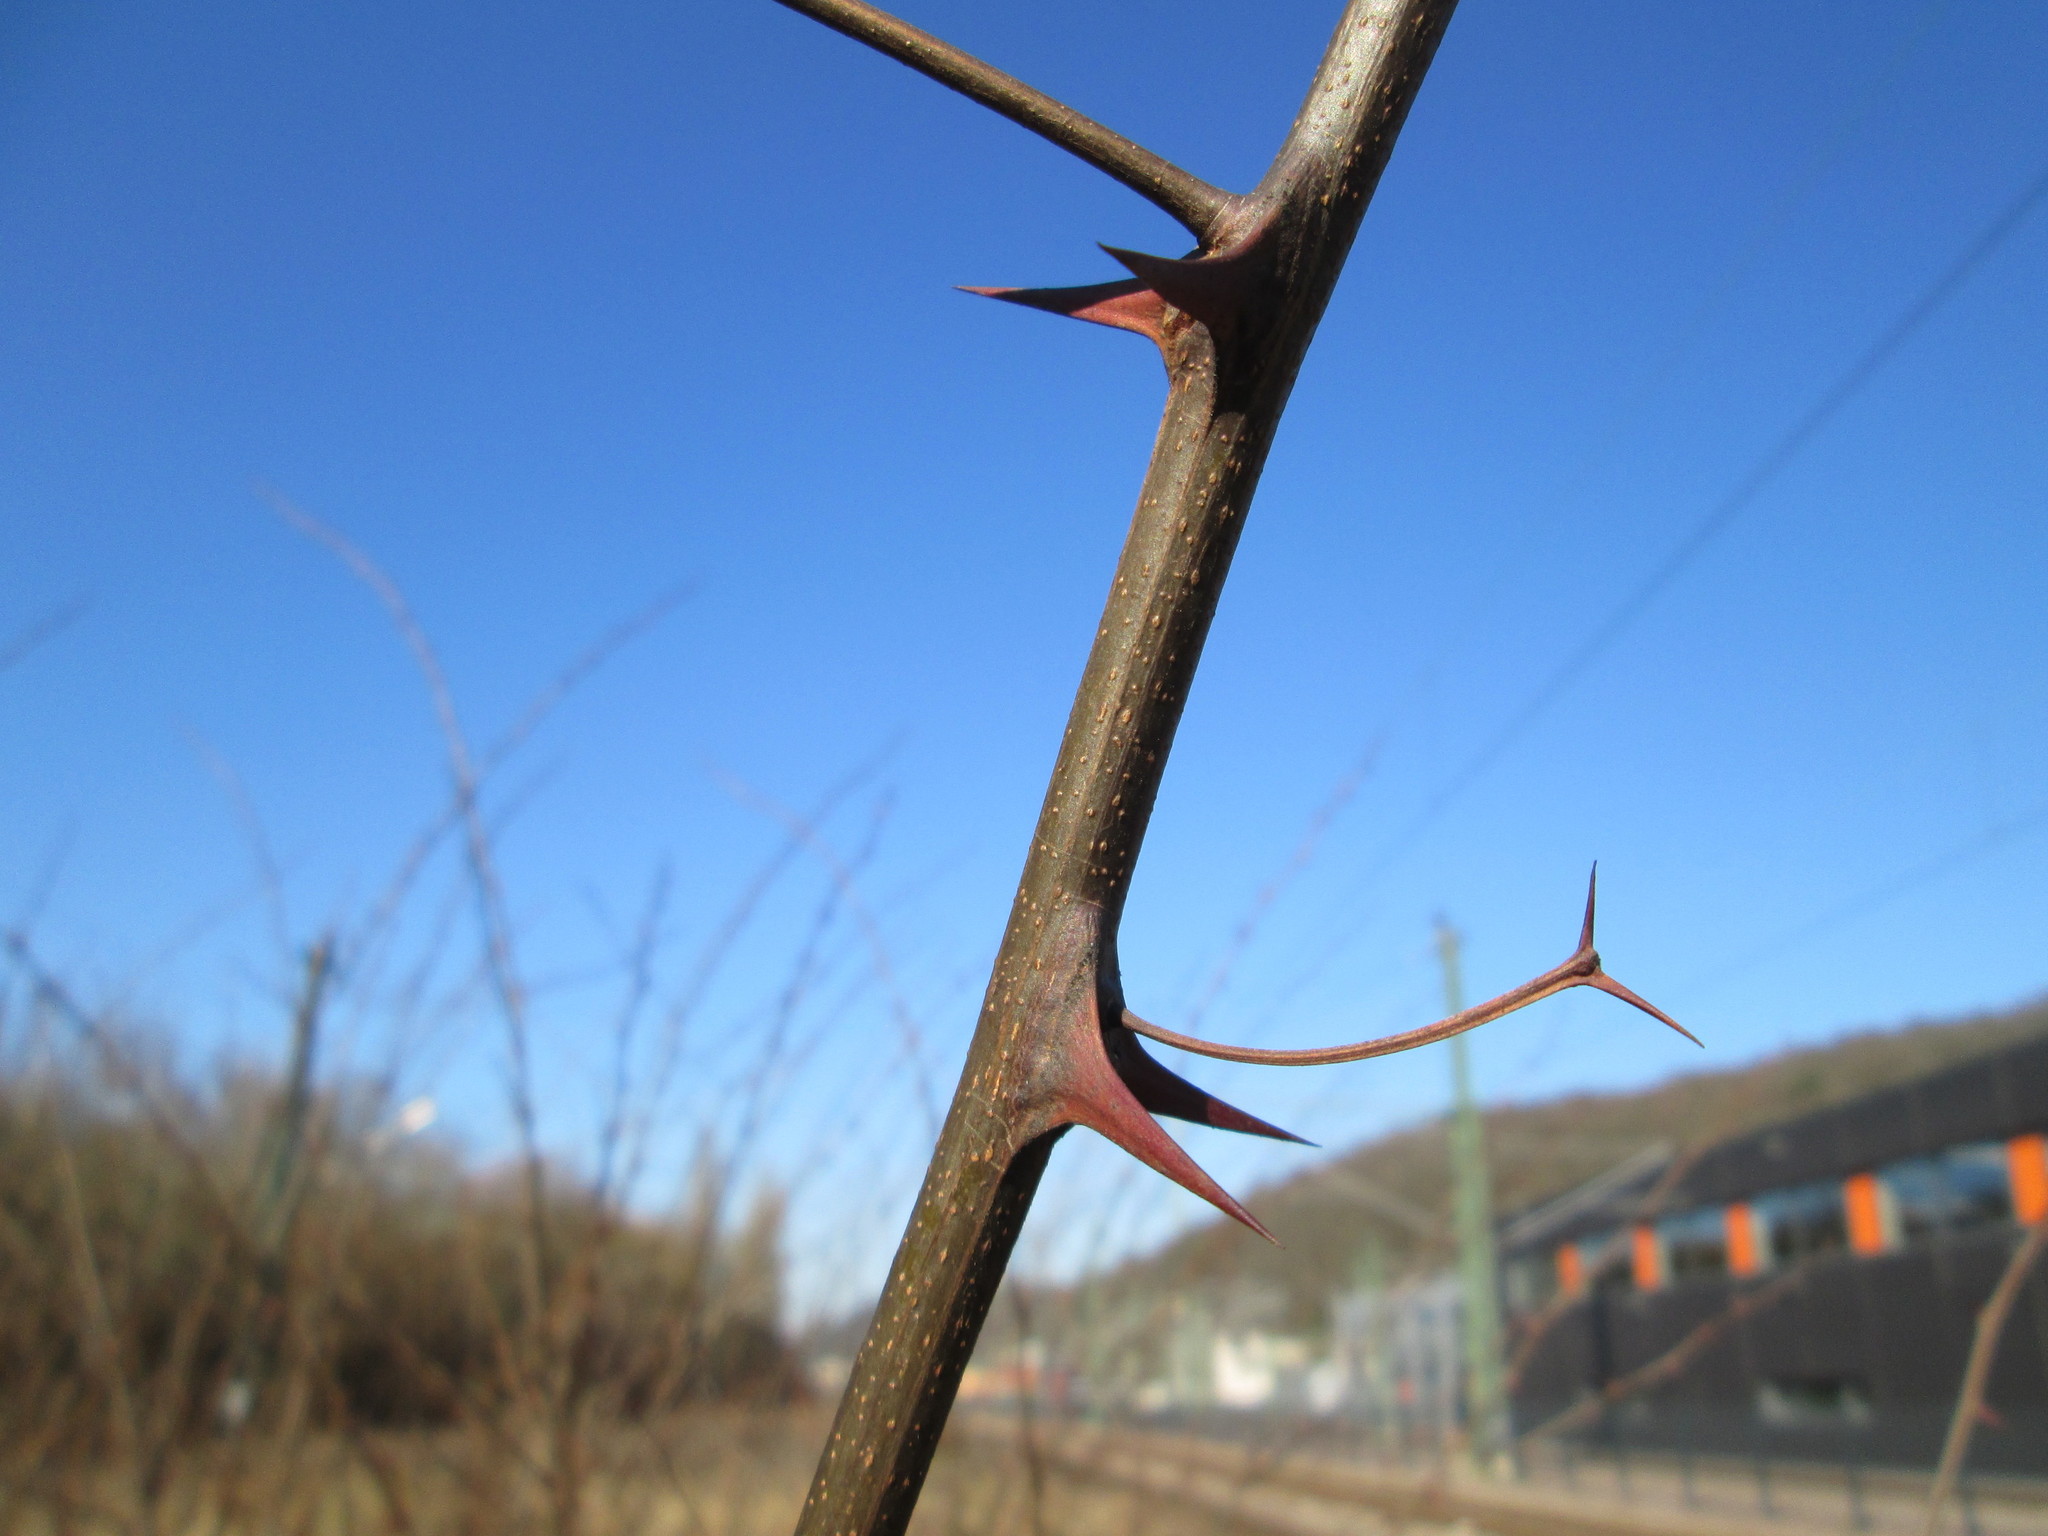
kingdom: Plantae
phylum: Tracheophyta
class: Magnoliopsida
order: Fabales
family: Fabaceae
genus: Robinia
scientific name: Robinia pseudoacacia
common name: Black locust
